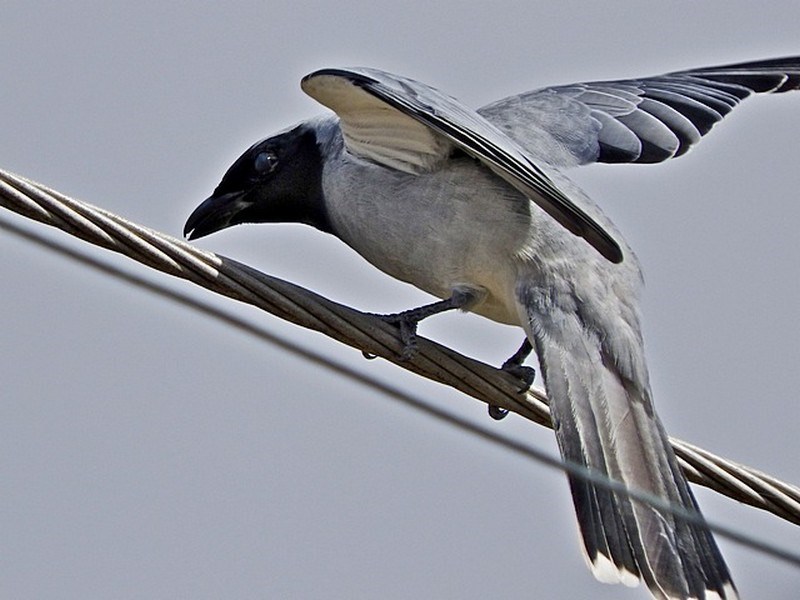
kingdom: Animalia
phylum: Chordata
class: Aves
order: Passeriformes
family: Campephagidae
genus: Coracina
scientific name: Coracina novaehollandiae
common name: Black-faced cuckooshrike
